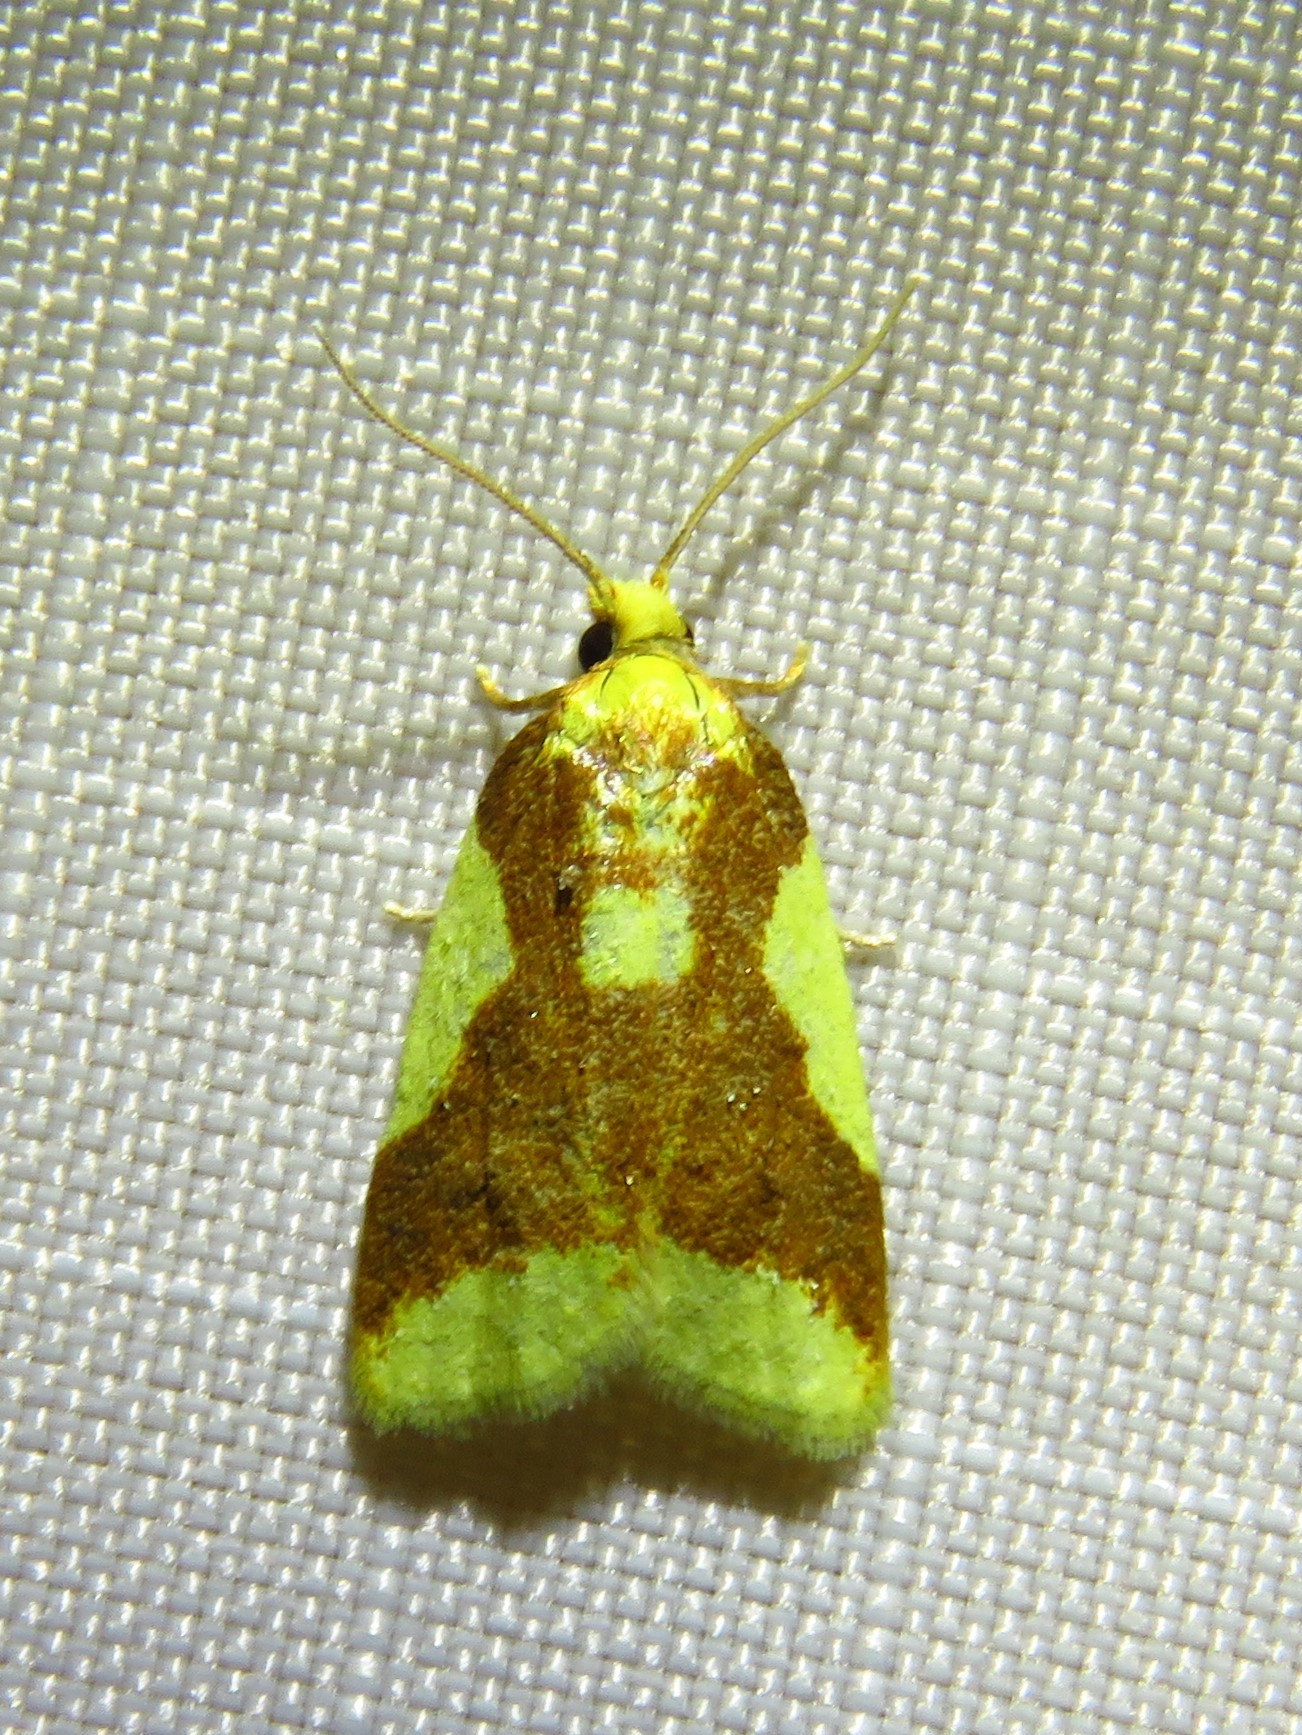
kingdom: Animalia
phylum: Arthropoda
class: Insecta
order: Lepidoptera
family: Tortricidae
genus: Sparganothis
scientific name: Sparganothis pulcherrimana
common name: Beautiful sparganothis
